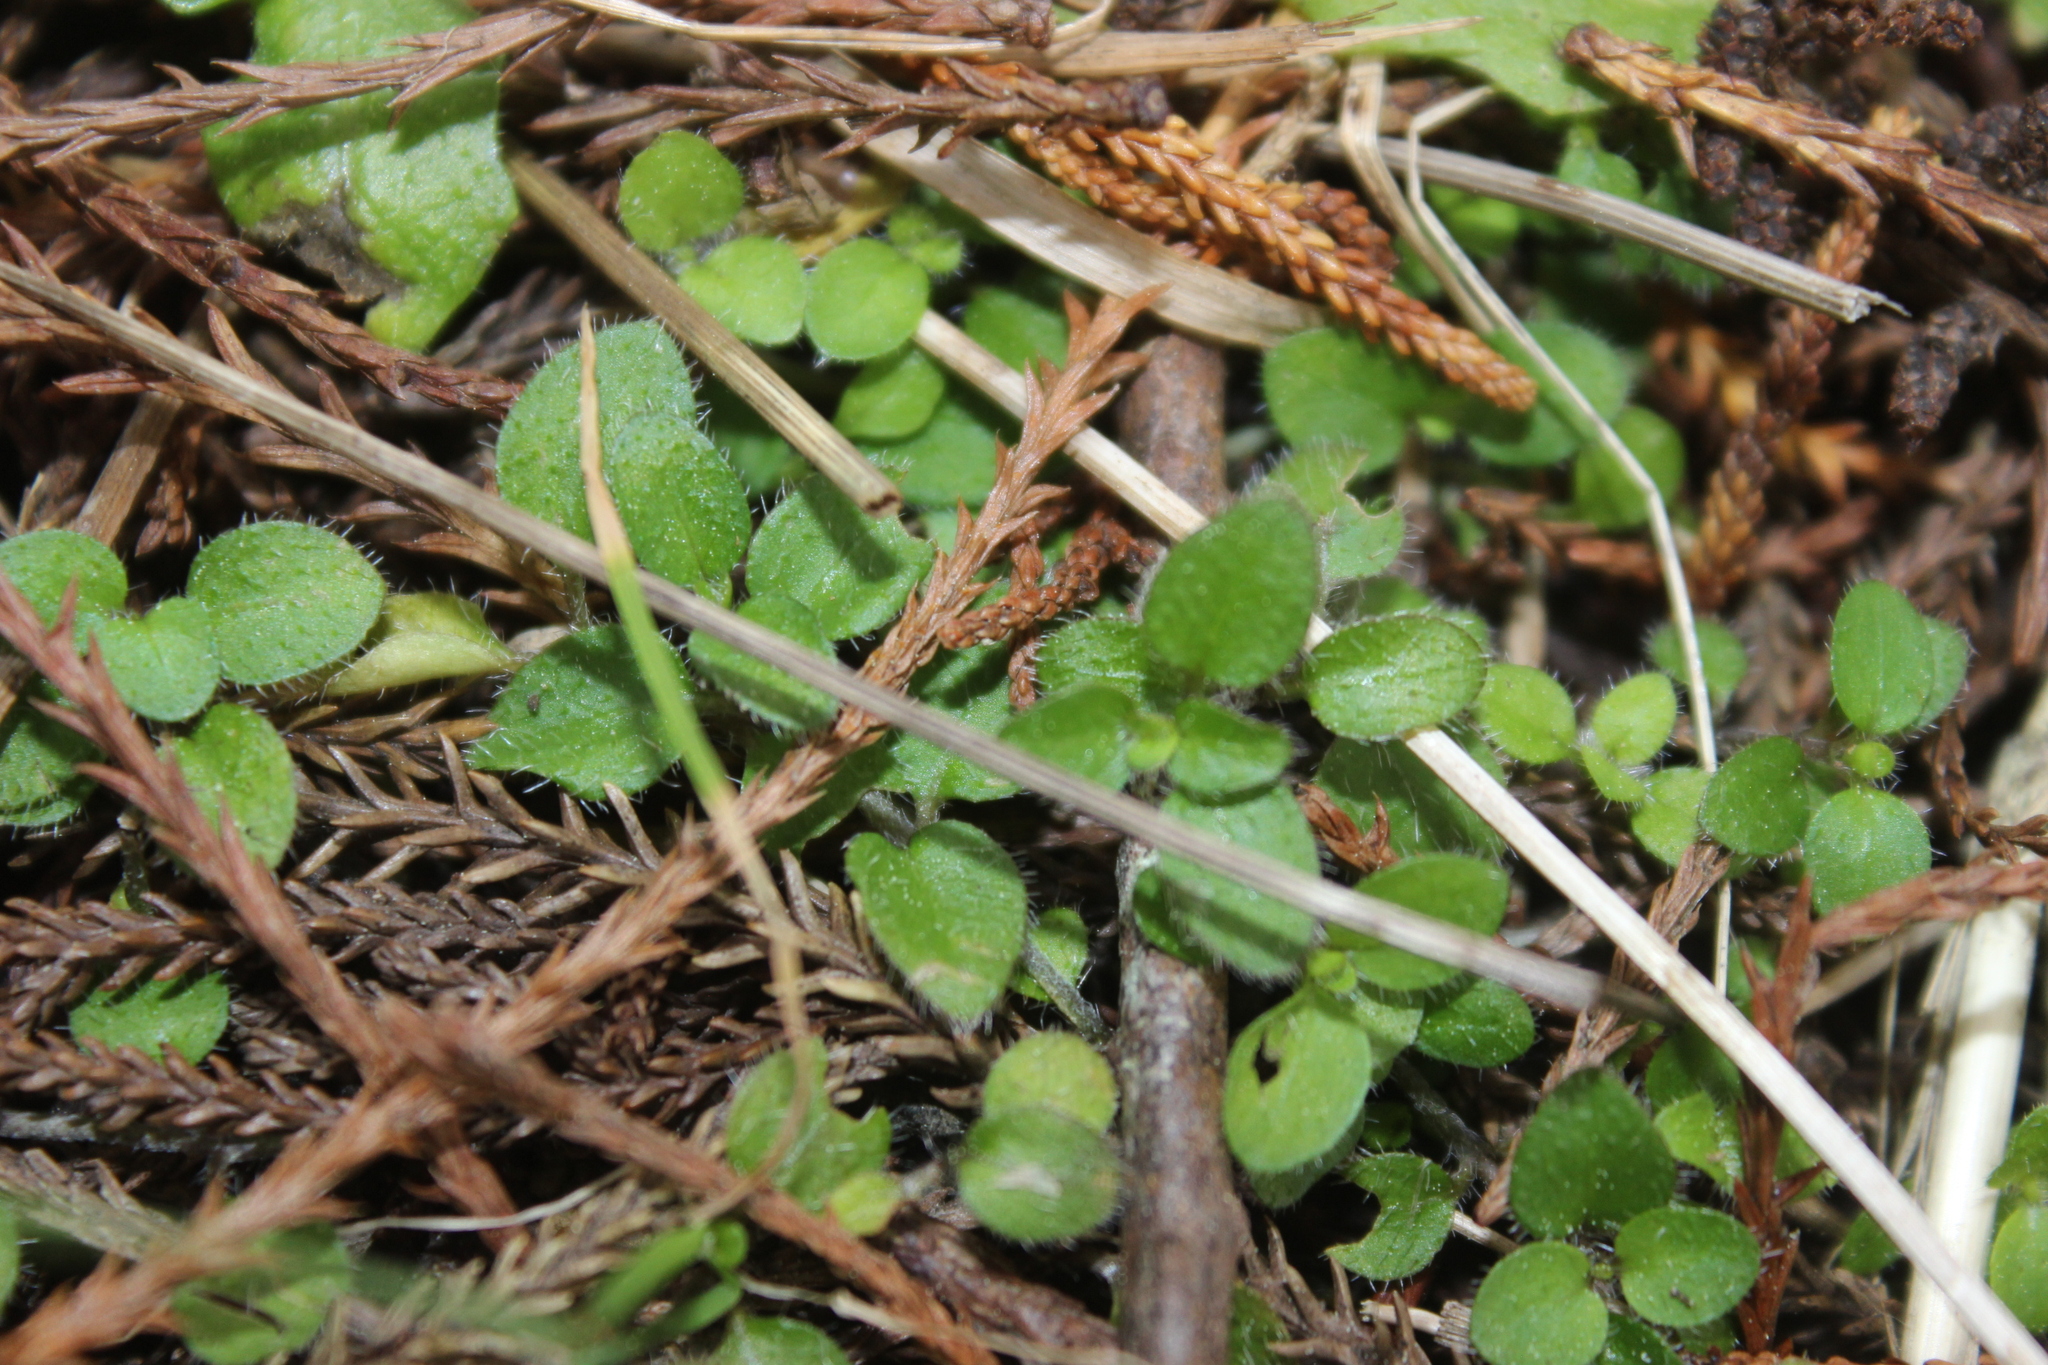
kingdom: Plantae
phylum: Tracheophyta
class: Magnoliopsida
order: Gentianales
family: Rubiaceae
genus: Leptostigma
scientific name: Leptostigma setulosum
